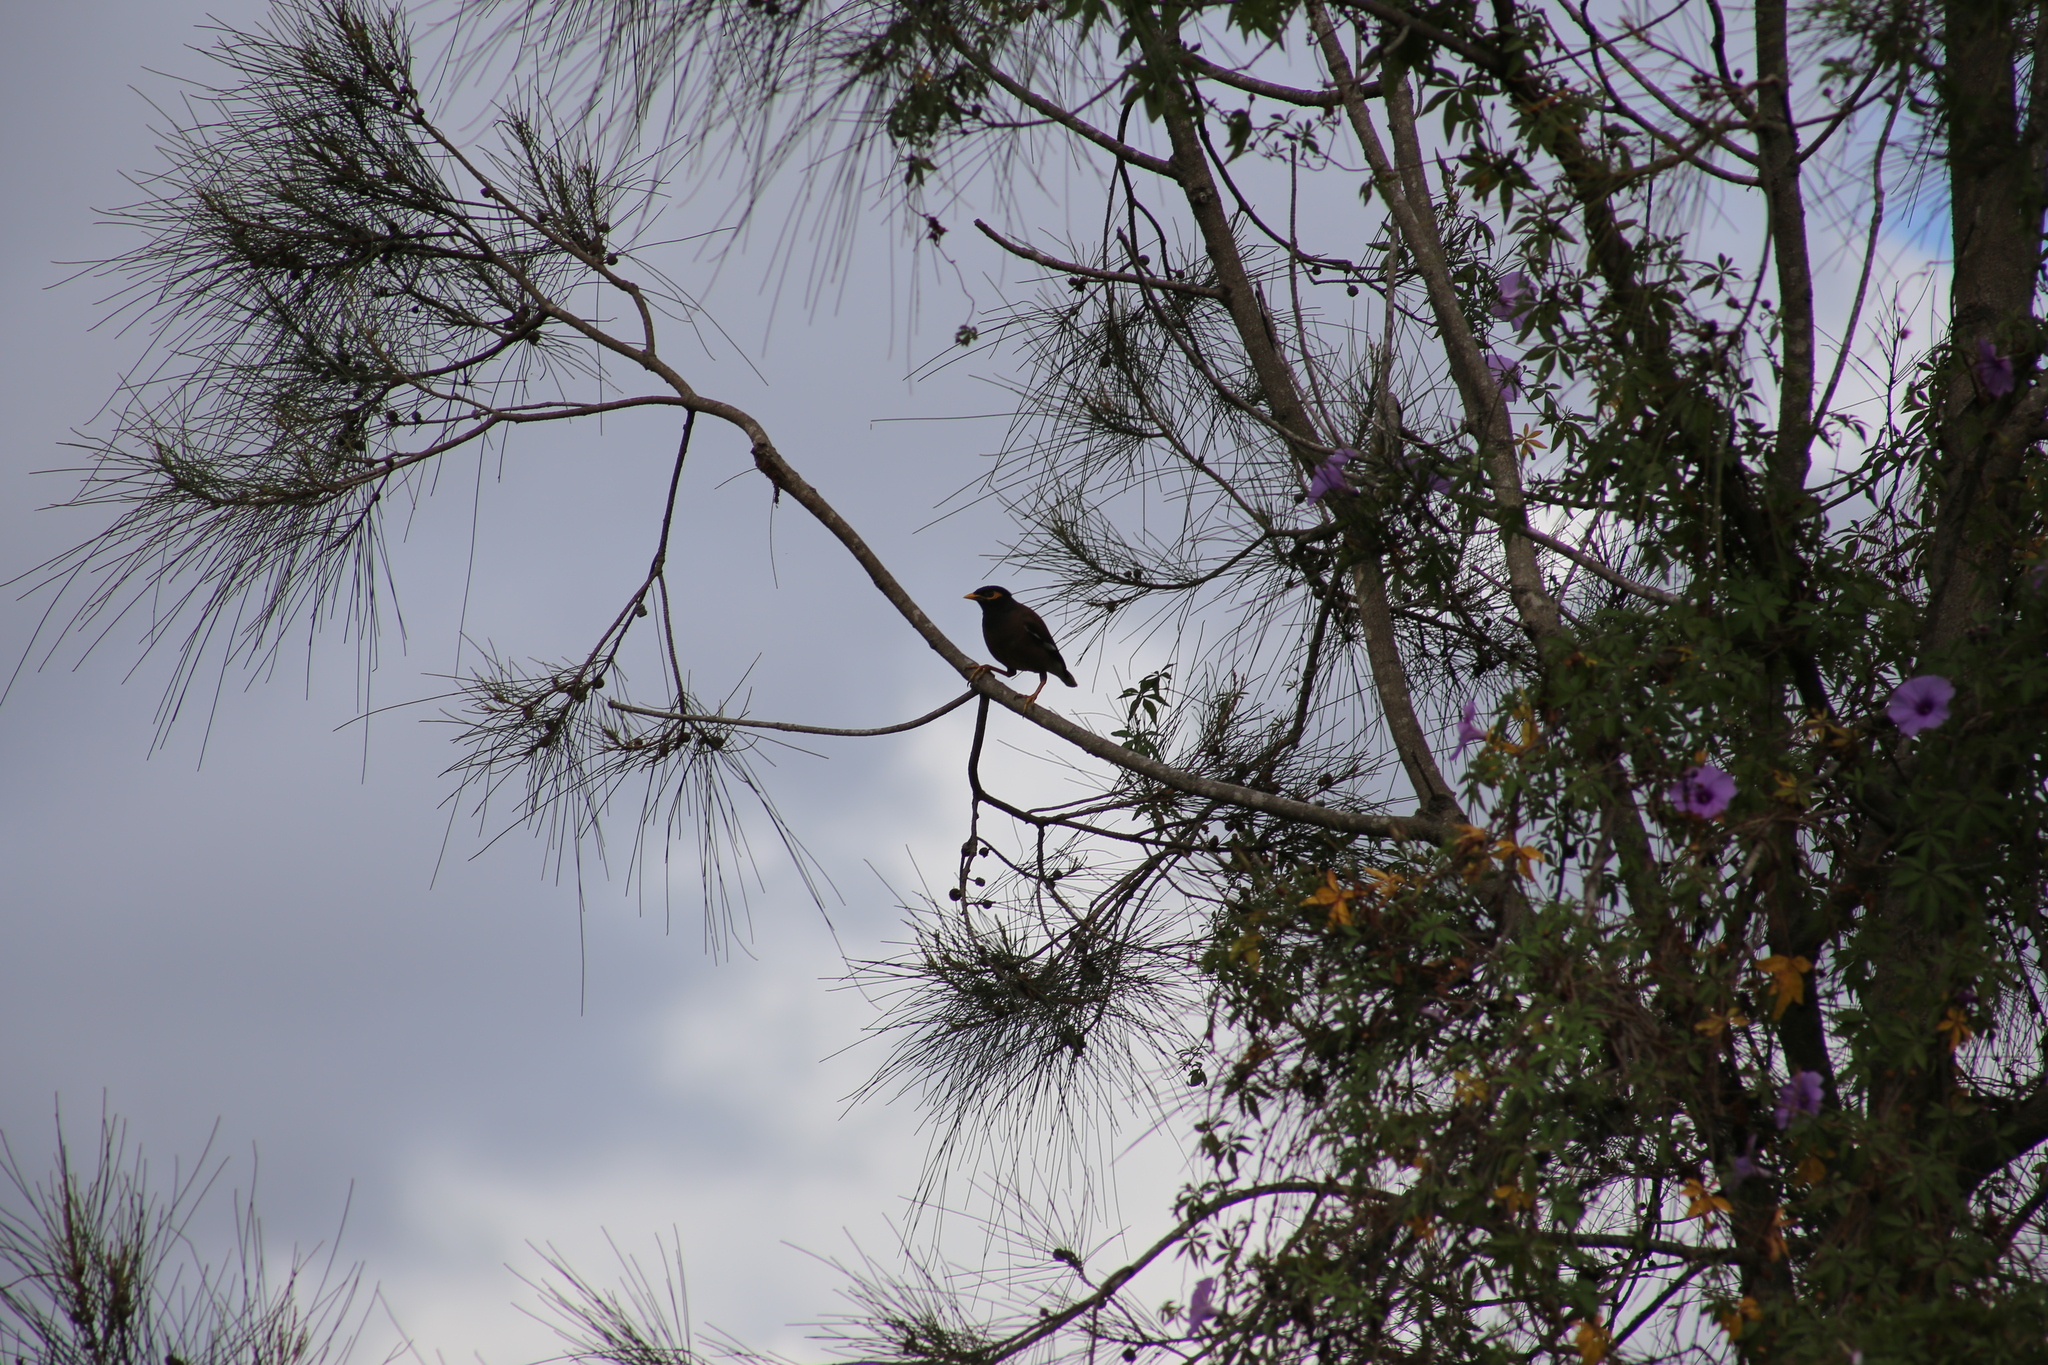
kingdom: Animalia
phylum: Chordata
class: Aves
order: Passeriformes
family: Sturnidae
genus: Acridotheres
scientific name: Acridotheres tristis
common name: Common myna
